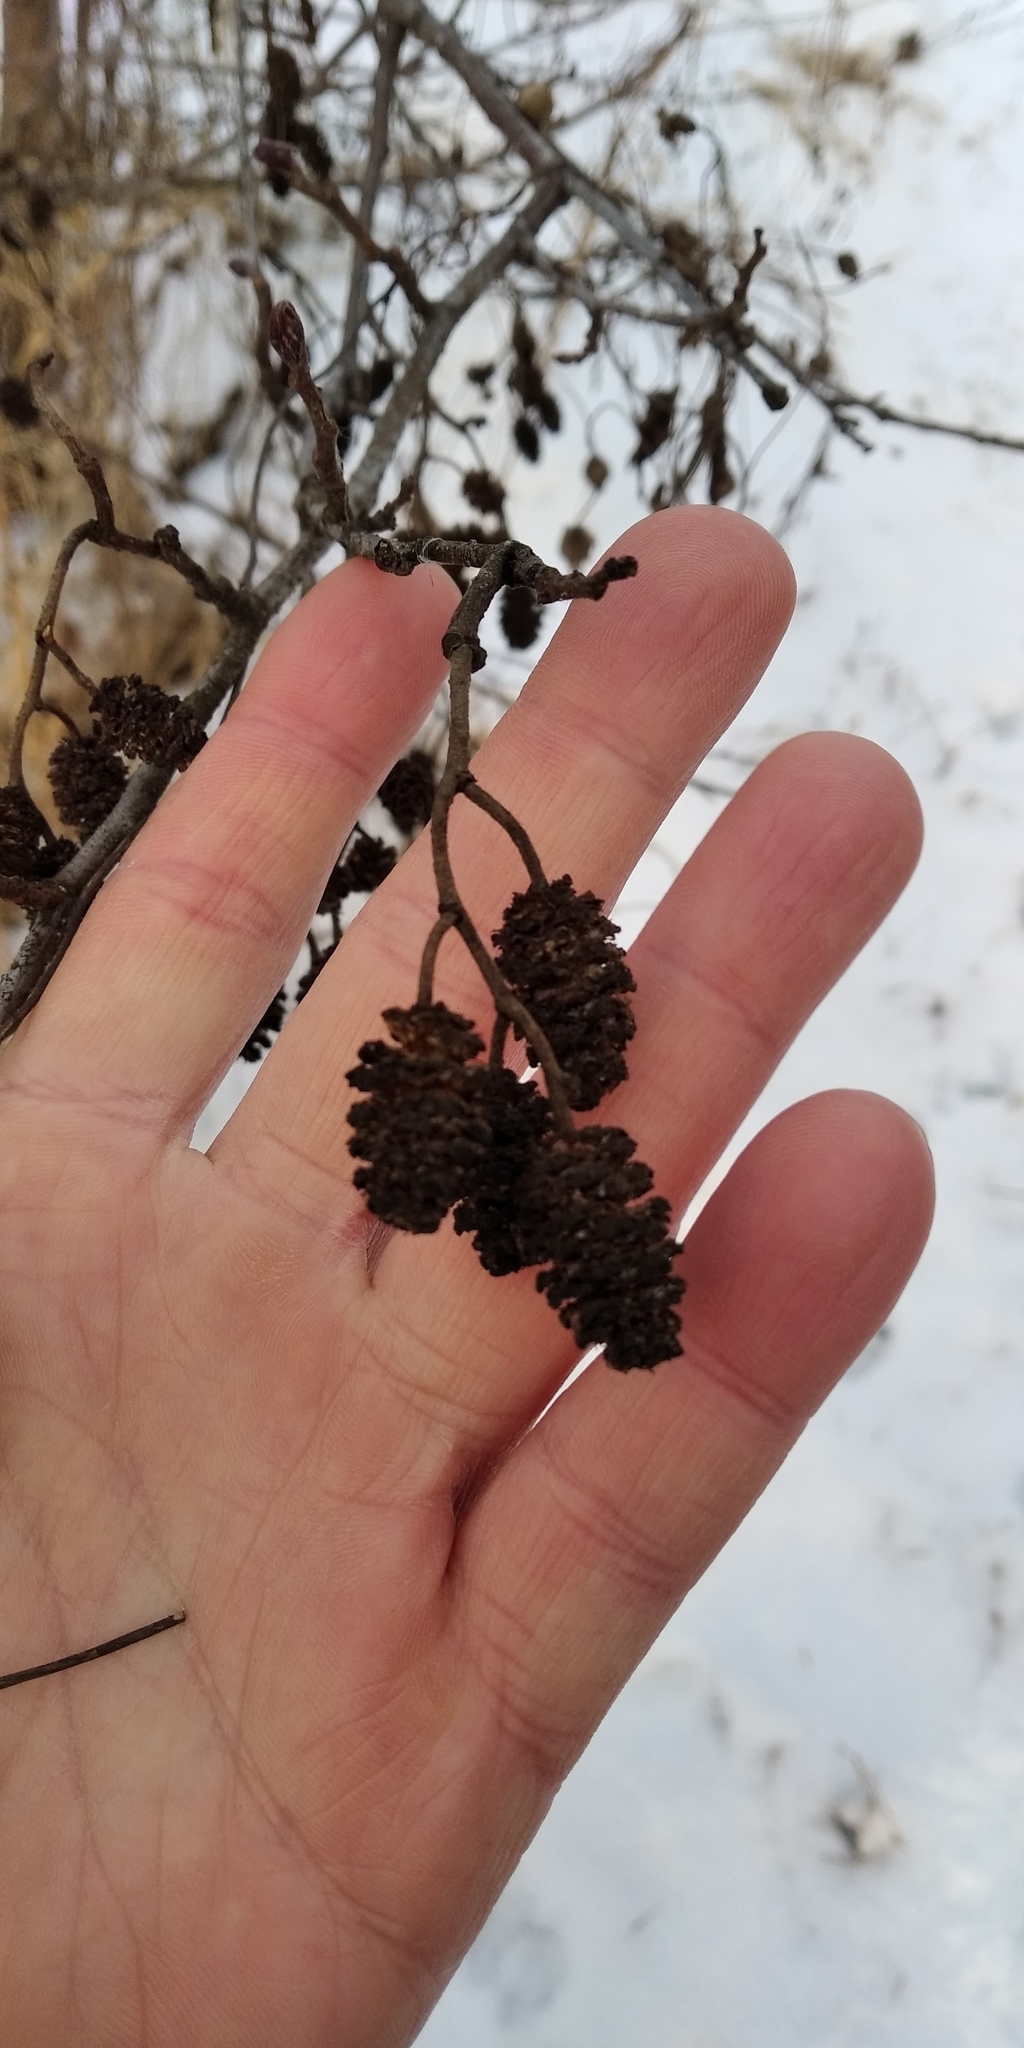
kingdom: Plantae
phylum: Tracheophyta
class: Magnoliopsida
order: Fagales
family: Betulaceae
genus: Alnus
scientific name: Alnus glutinosa
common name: Black alder
